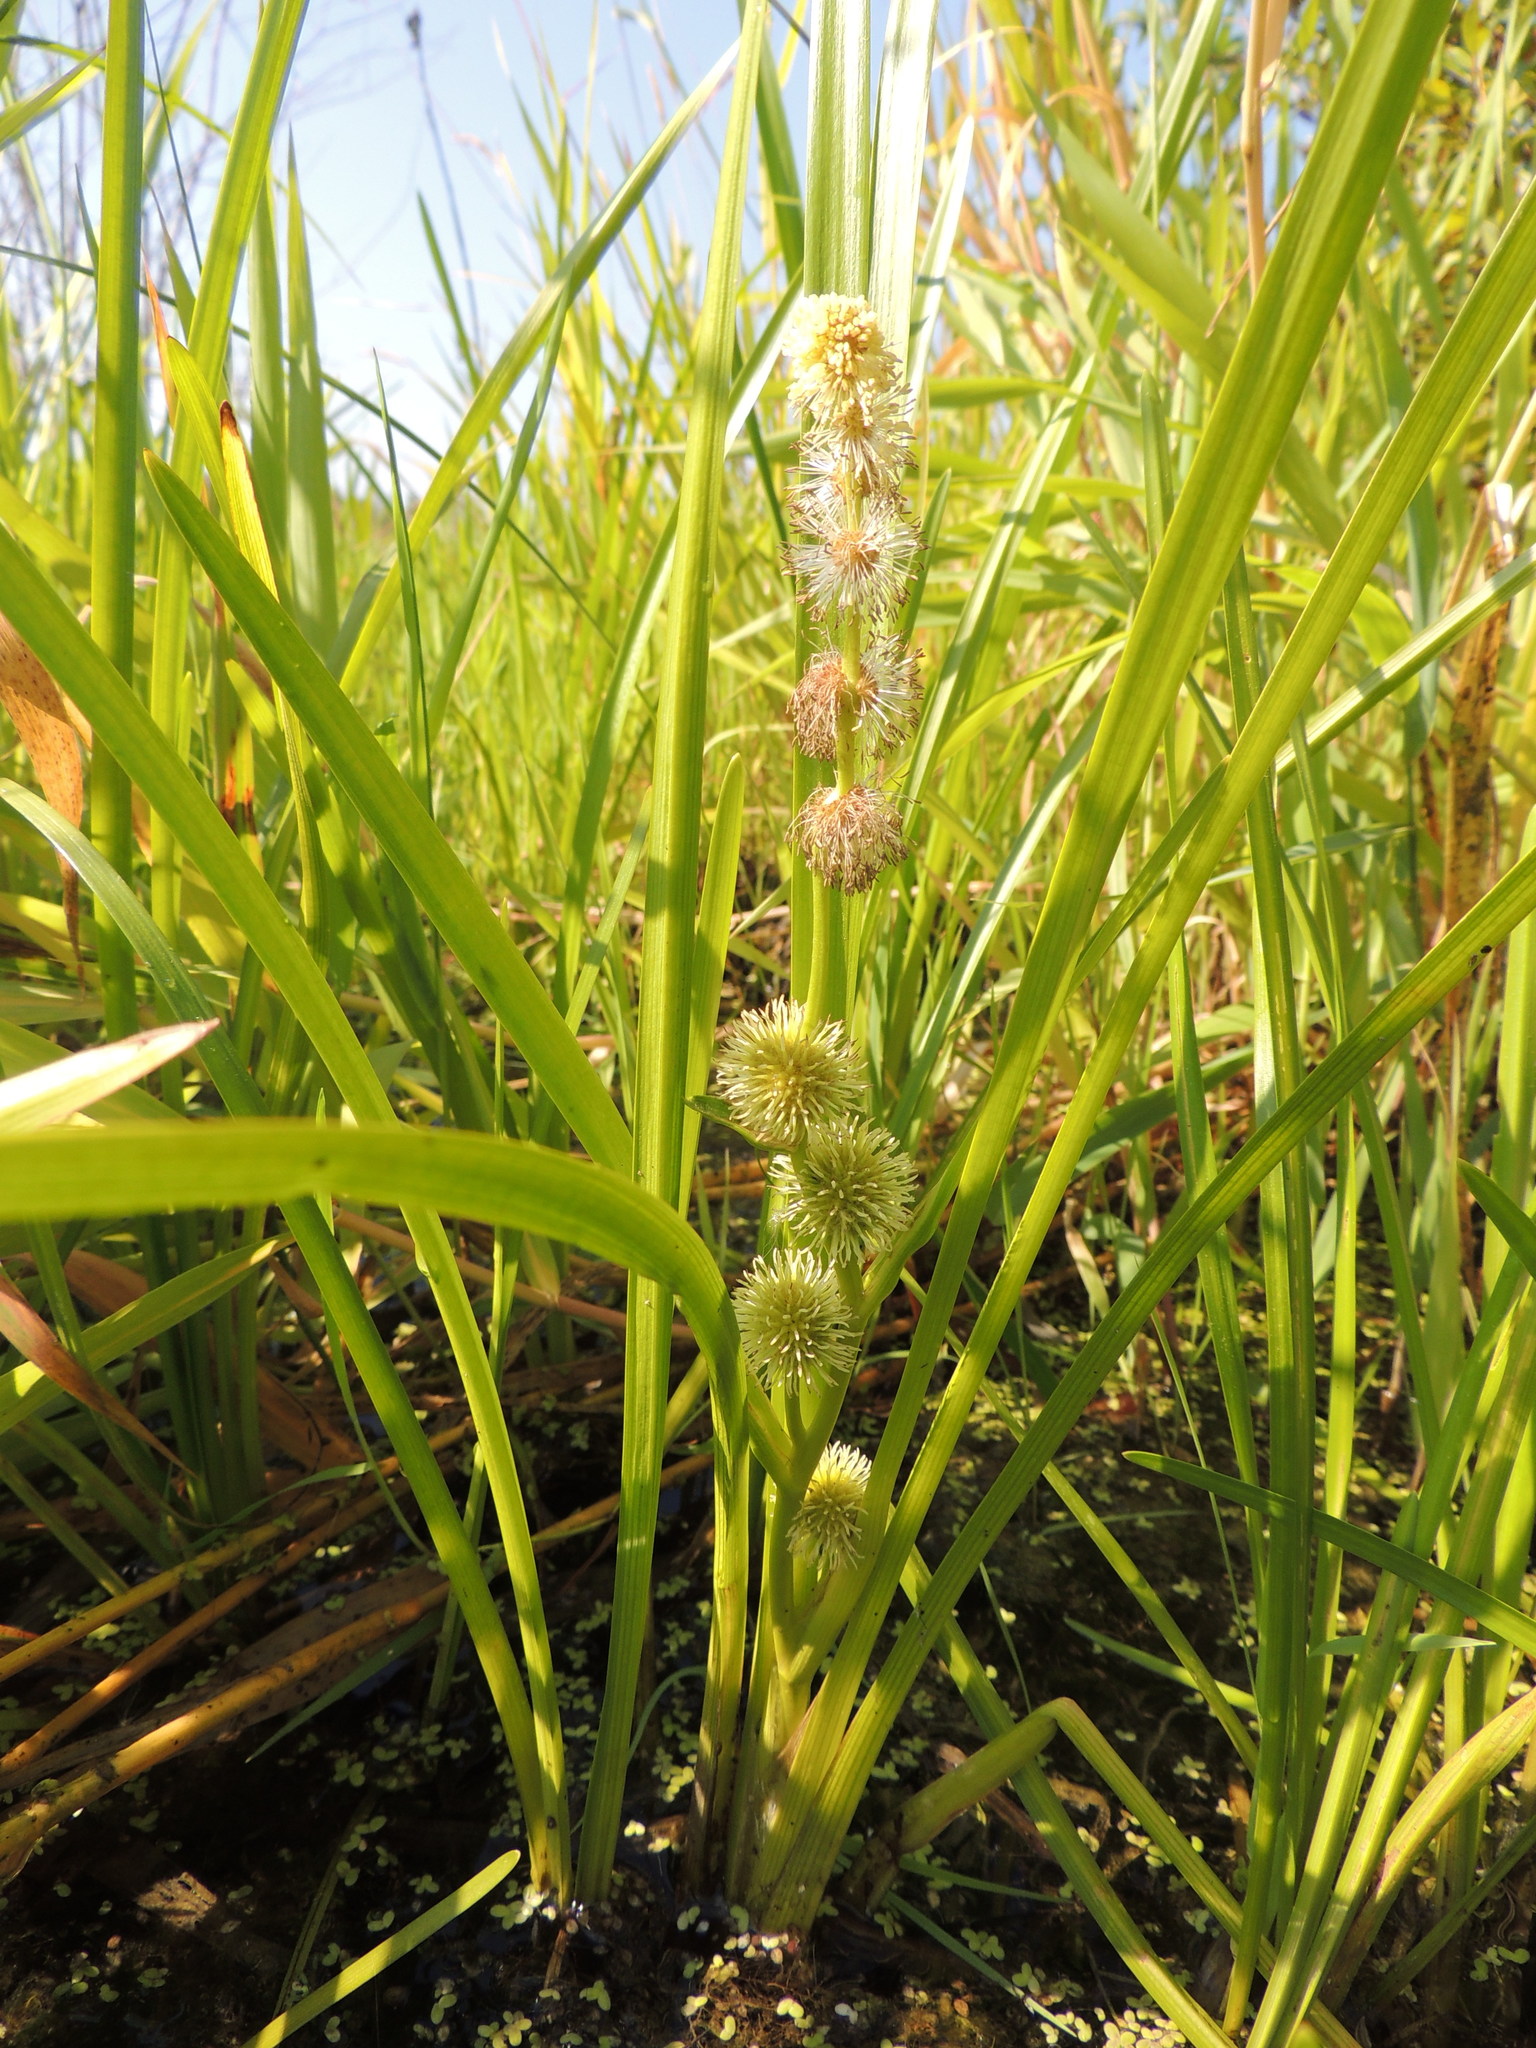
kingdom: Plantae
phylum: Tracheophyta
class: Liliopsida
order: Poales
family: Typhaceae
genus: Sparganium
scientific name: Sparganium emersum
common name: Unbranched bur-reed
